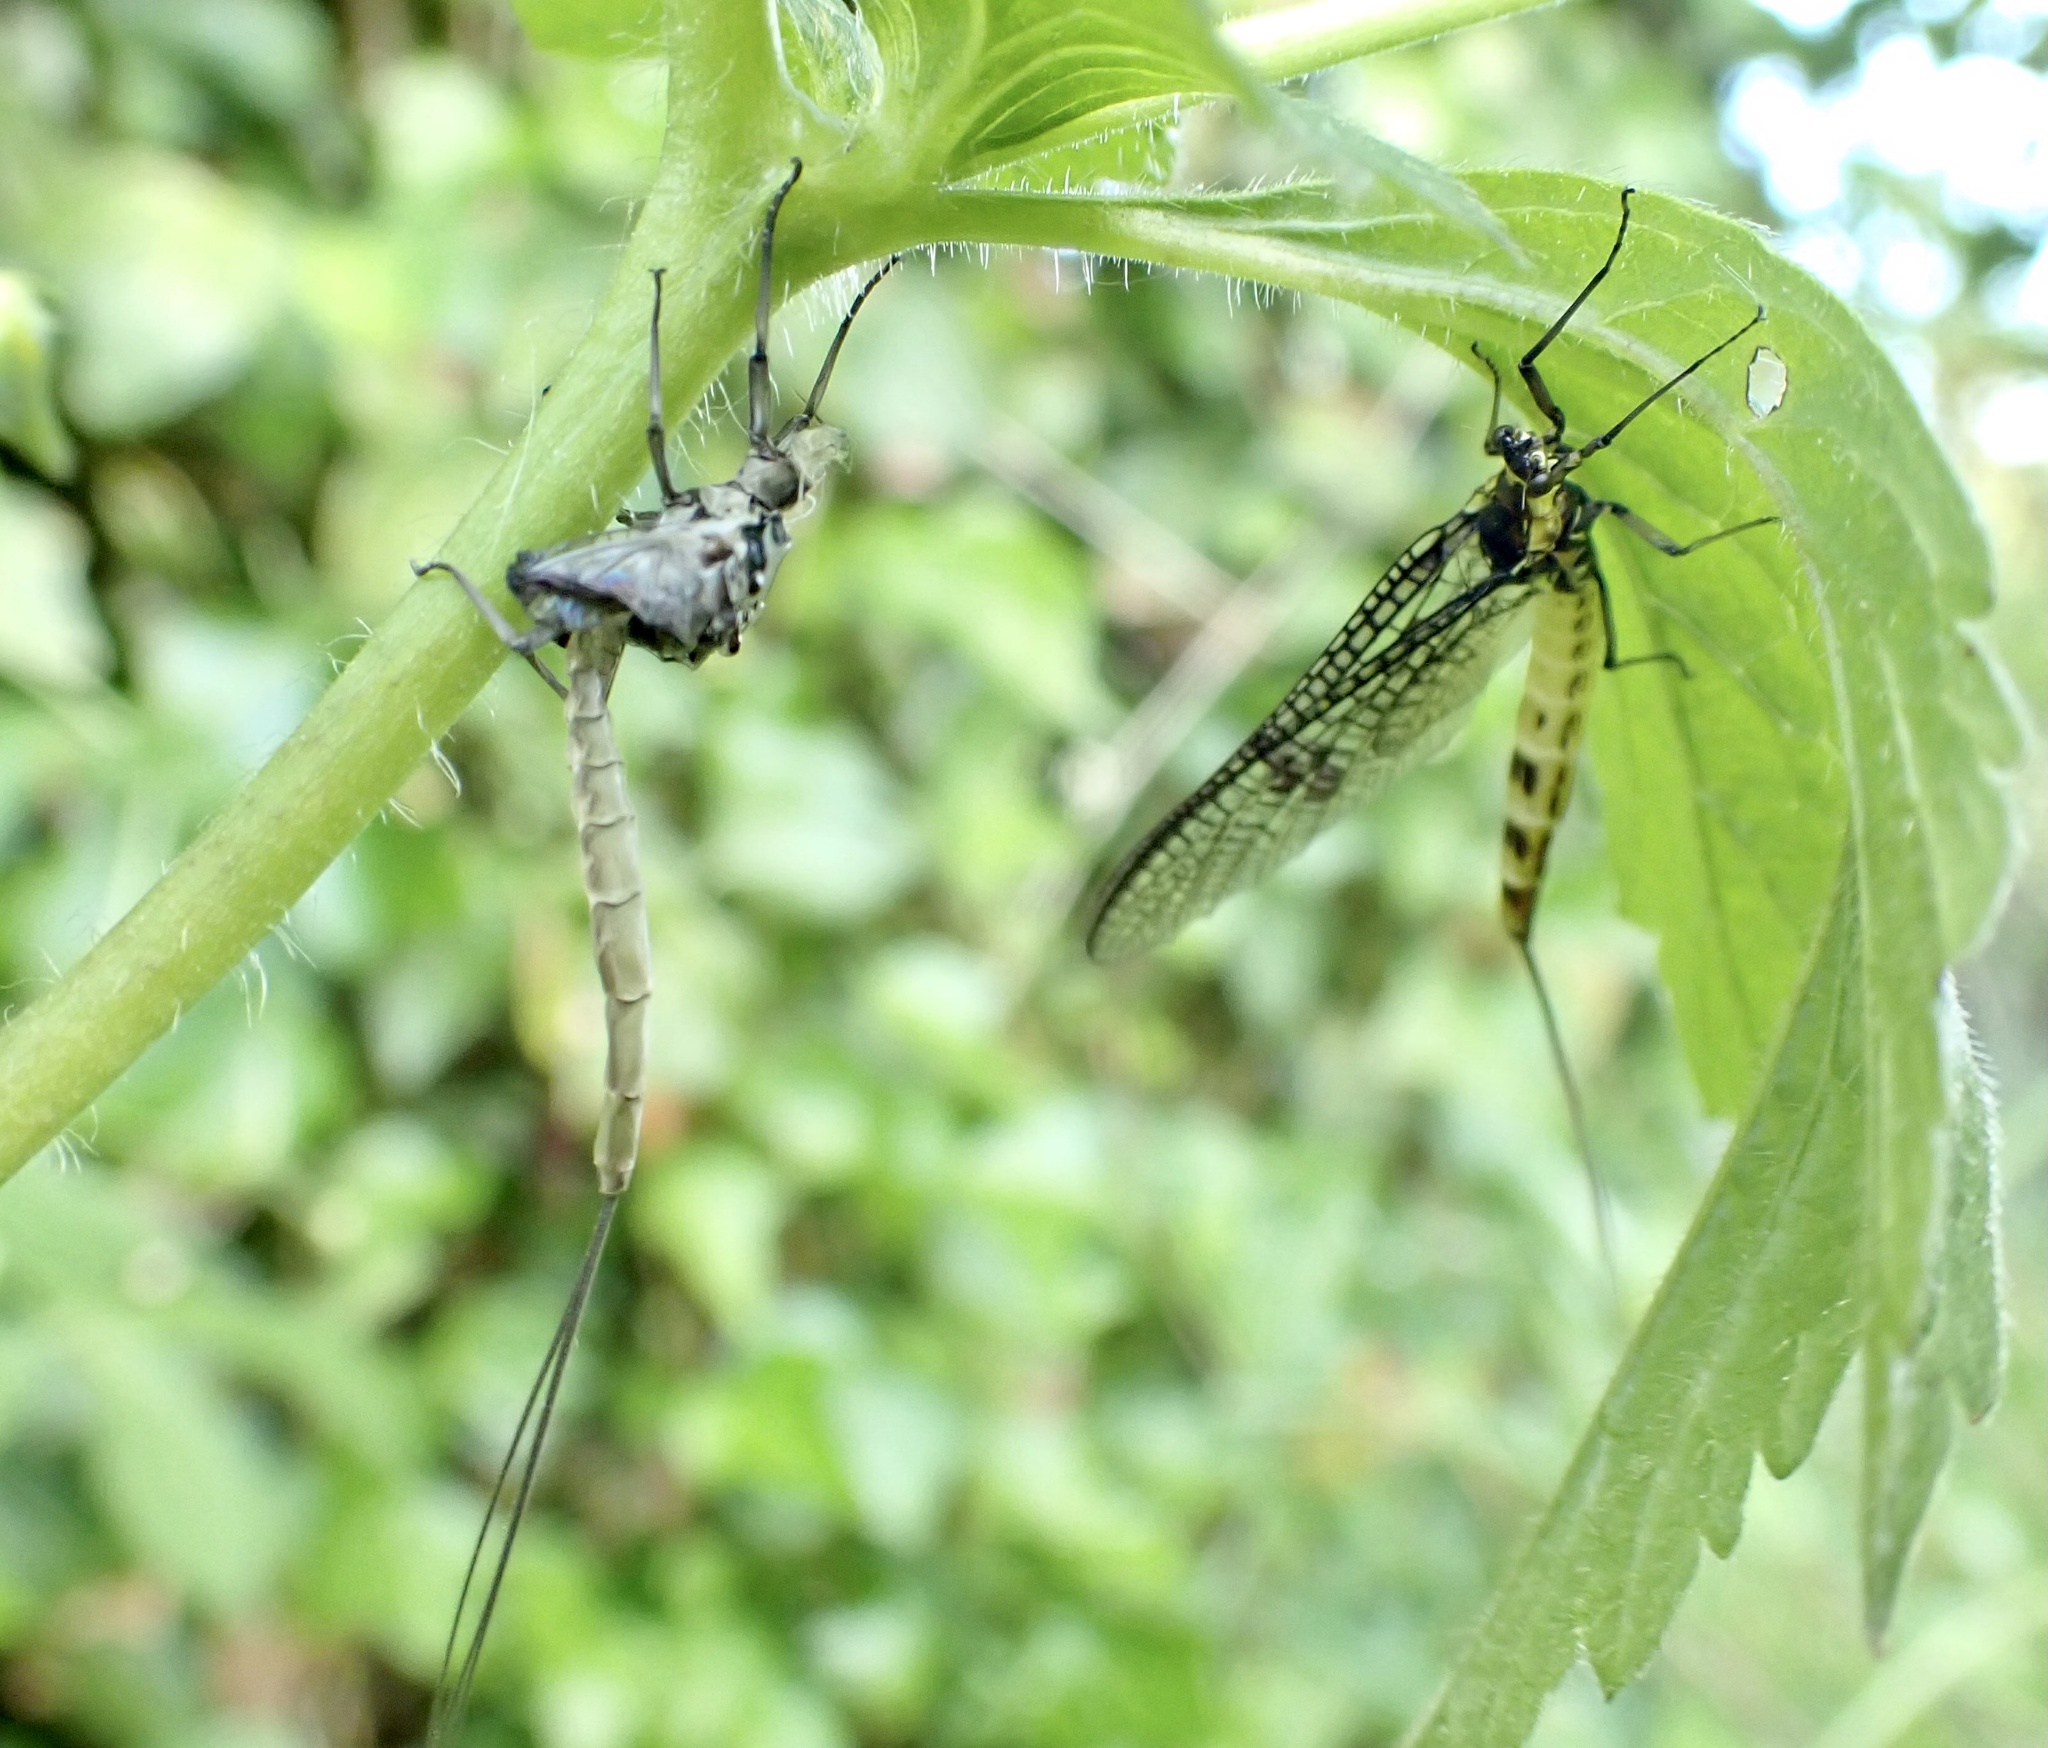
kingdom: Animalia
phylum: Arthropoda
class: Insecta
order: Ephemeroptera
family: Ephemeridae
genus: Ephemera
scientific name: Ephemera danica
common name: Green dun
